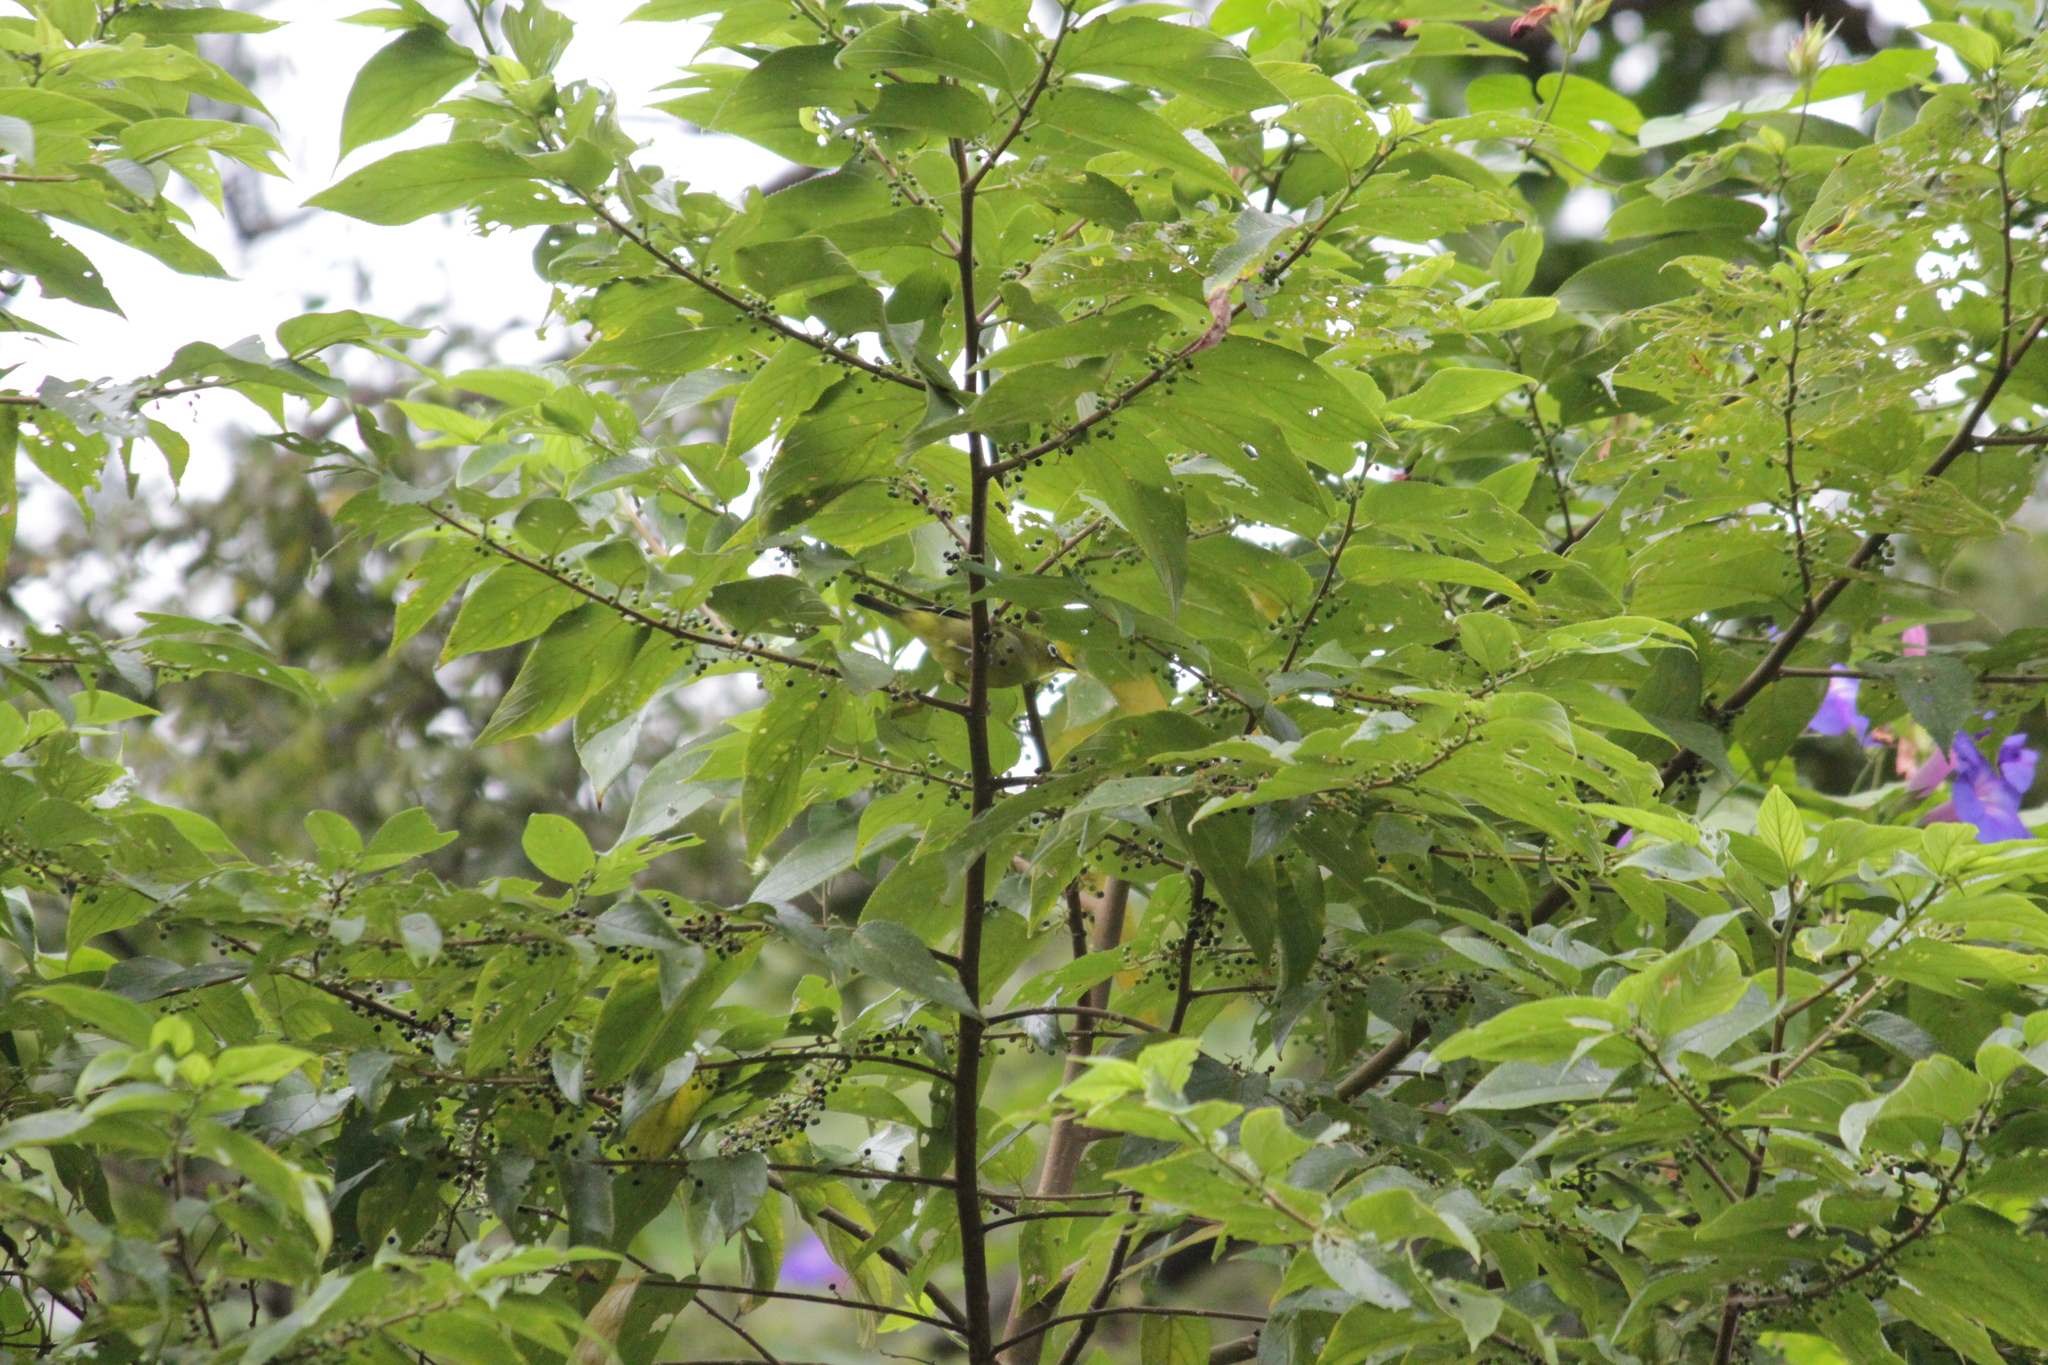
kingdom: Animalia
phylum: Chordata
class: Aves
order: Passeriformes
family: Zosteropidae
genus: Zosterops
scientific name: Zosterops virens
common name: Cape white-eye
